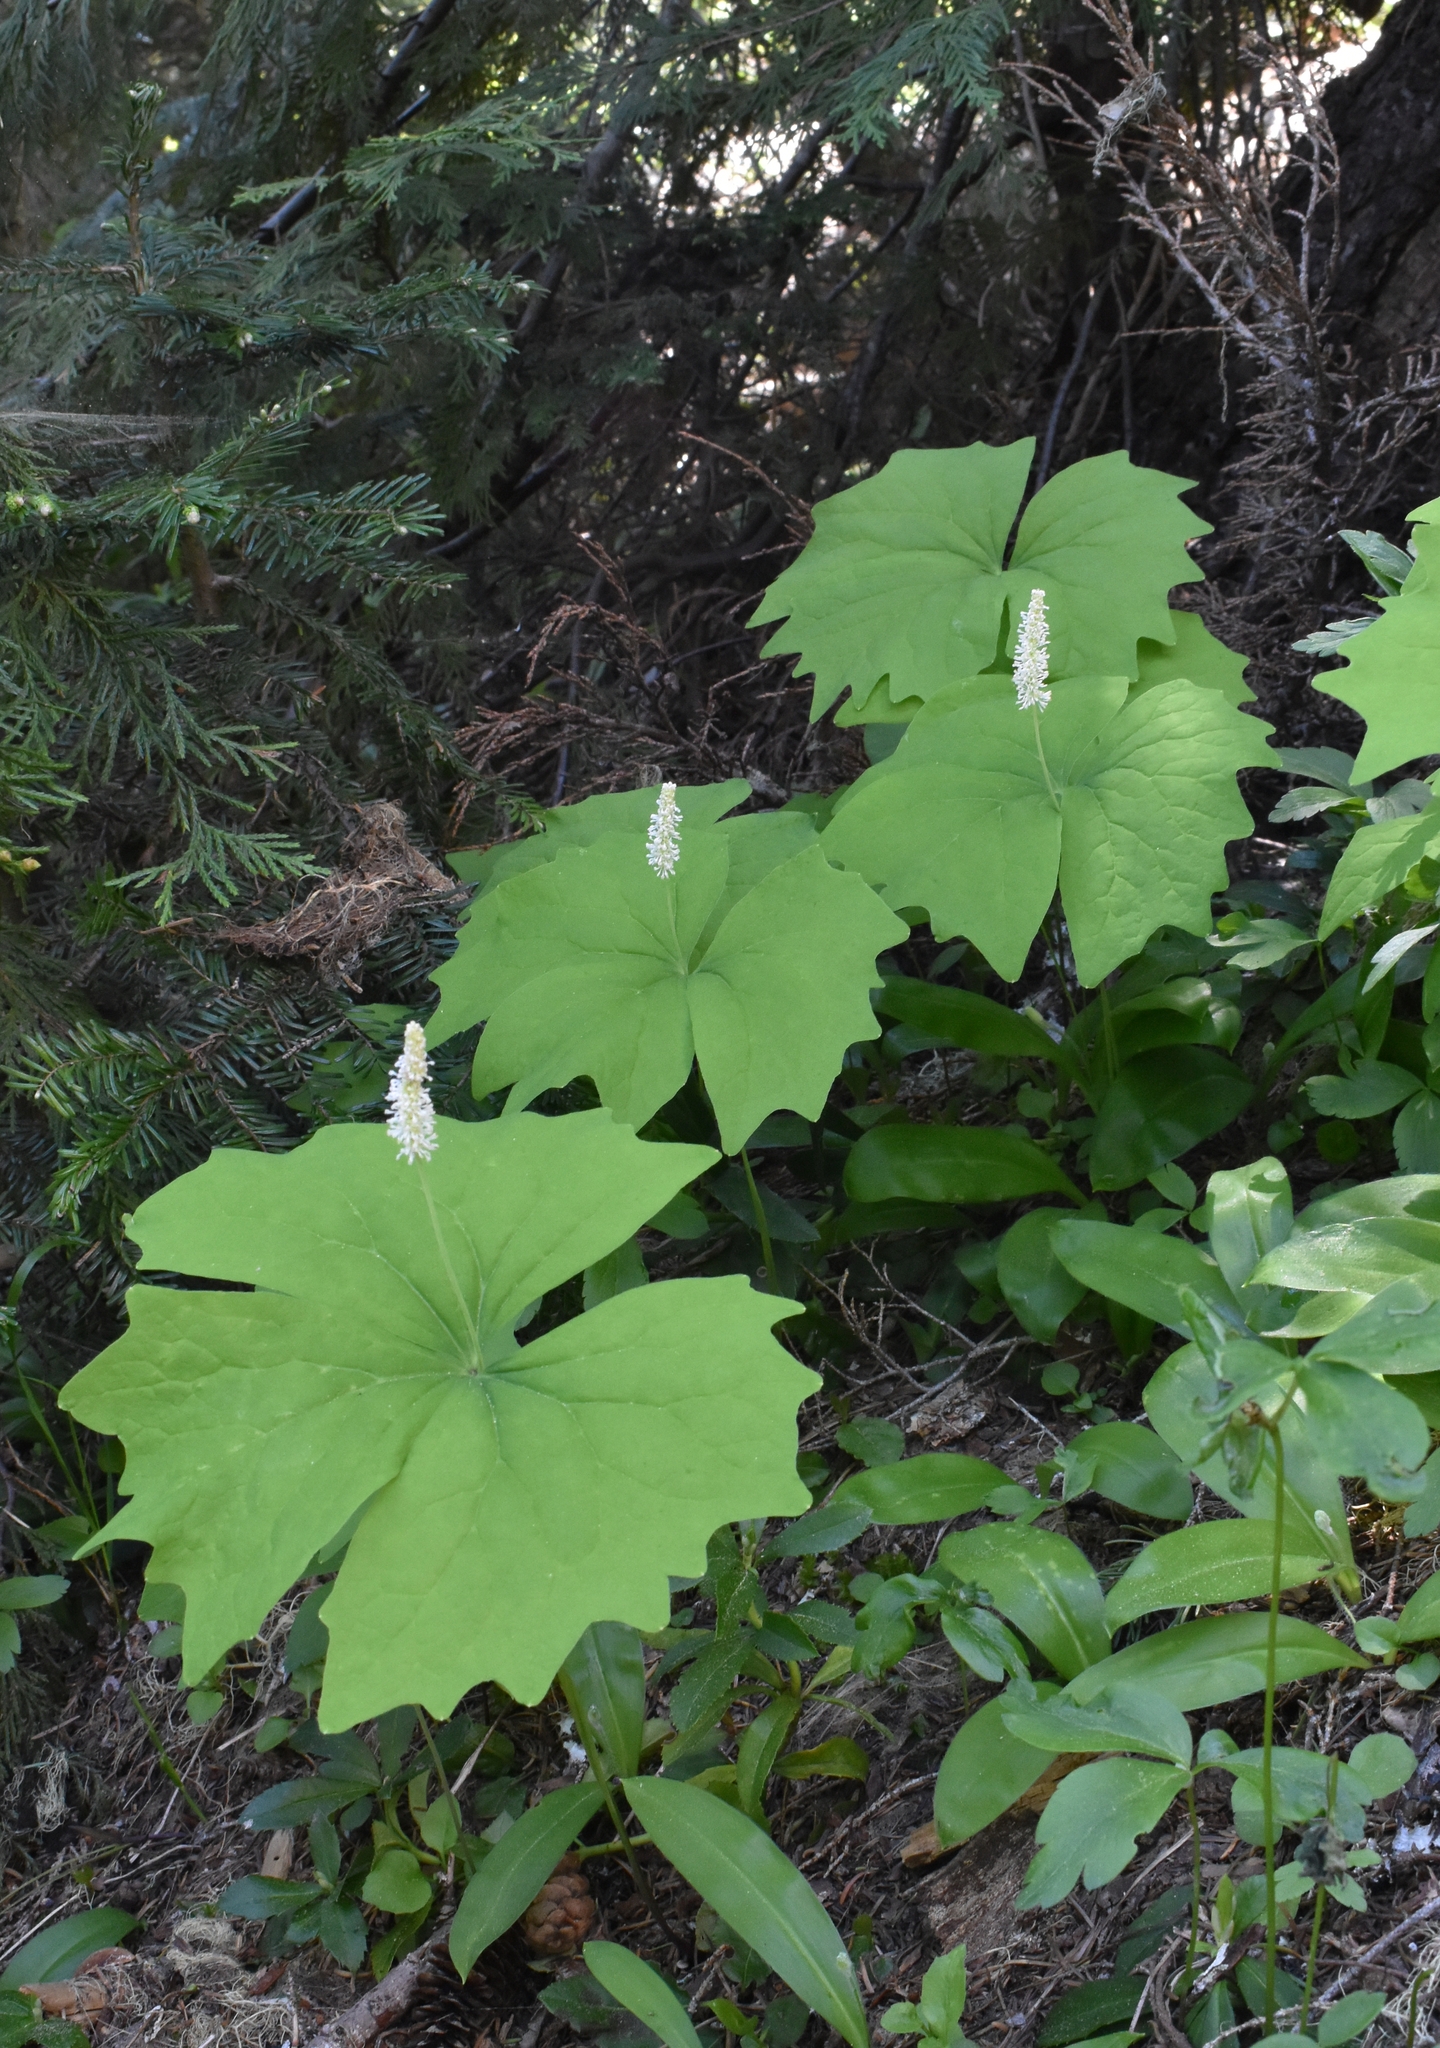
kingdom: Plantae
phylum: Tracheophyta
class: Magnoliopsida
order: Ranunculales
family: Berberidaceae
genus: Achlys
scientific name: Achlys triphylla
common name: Vanilla-leaf
